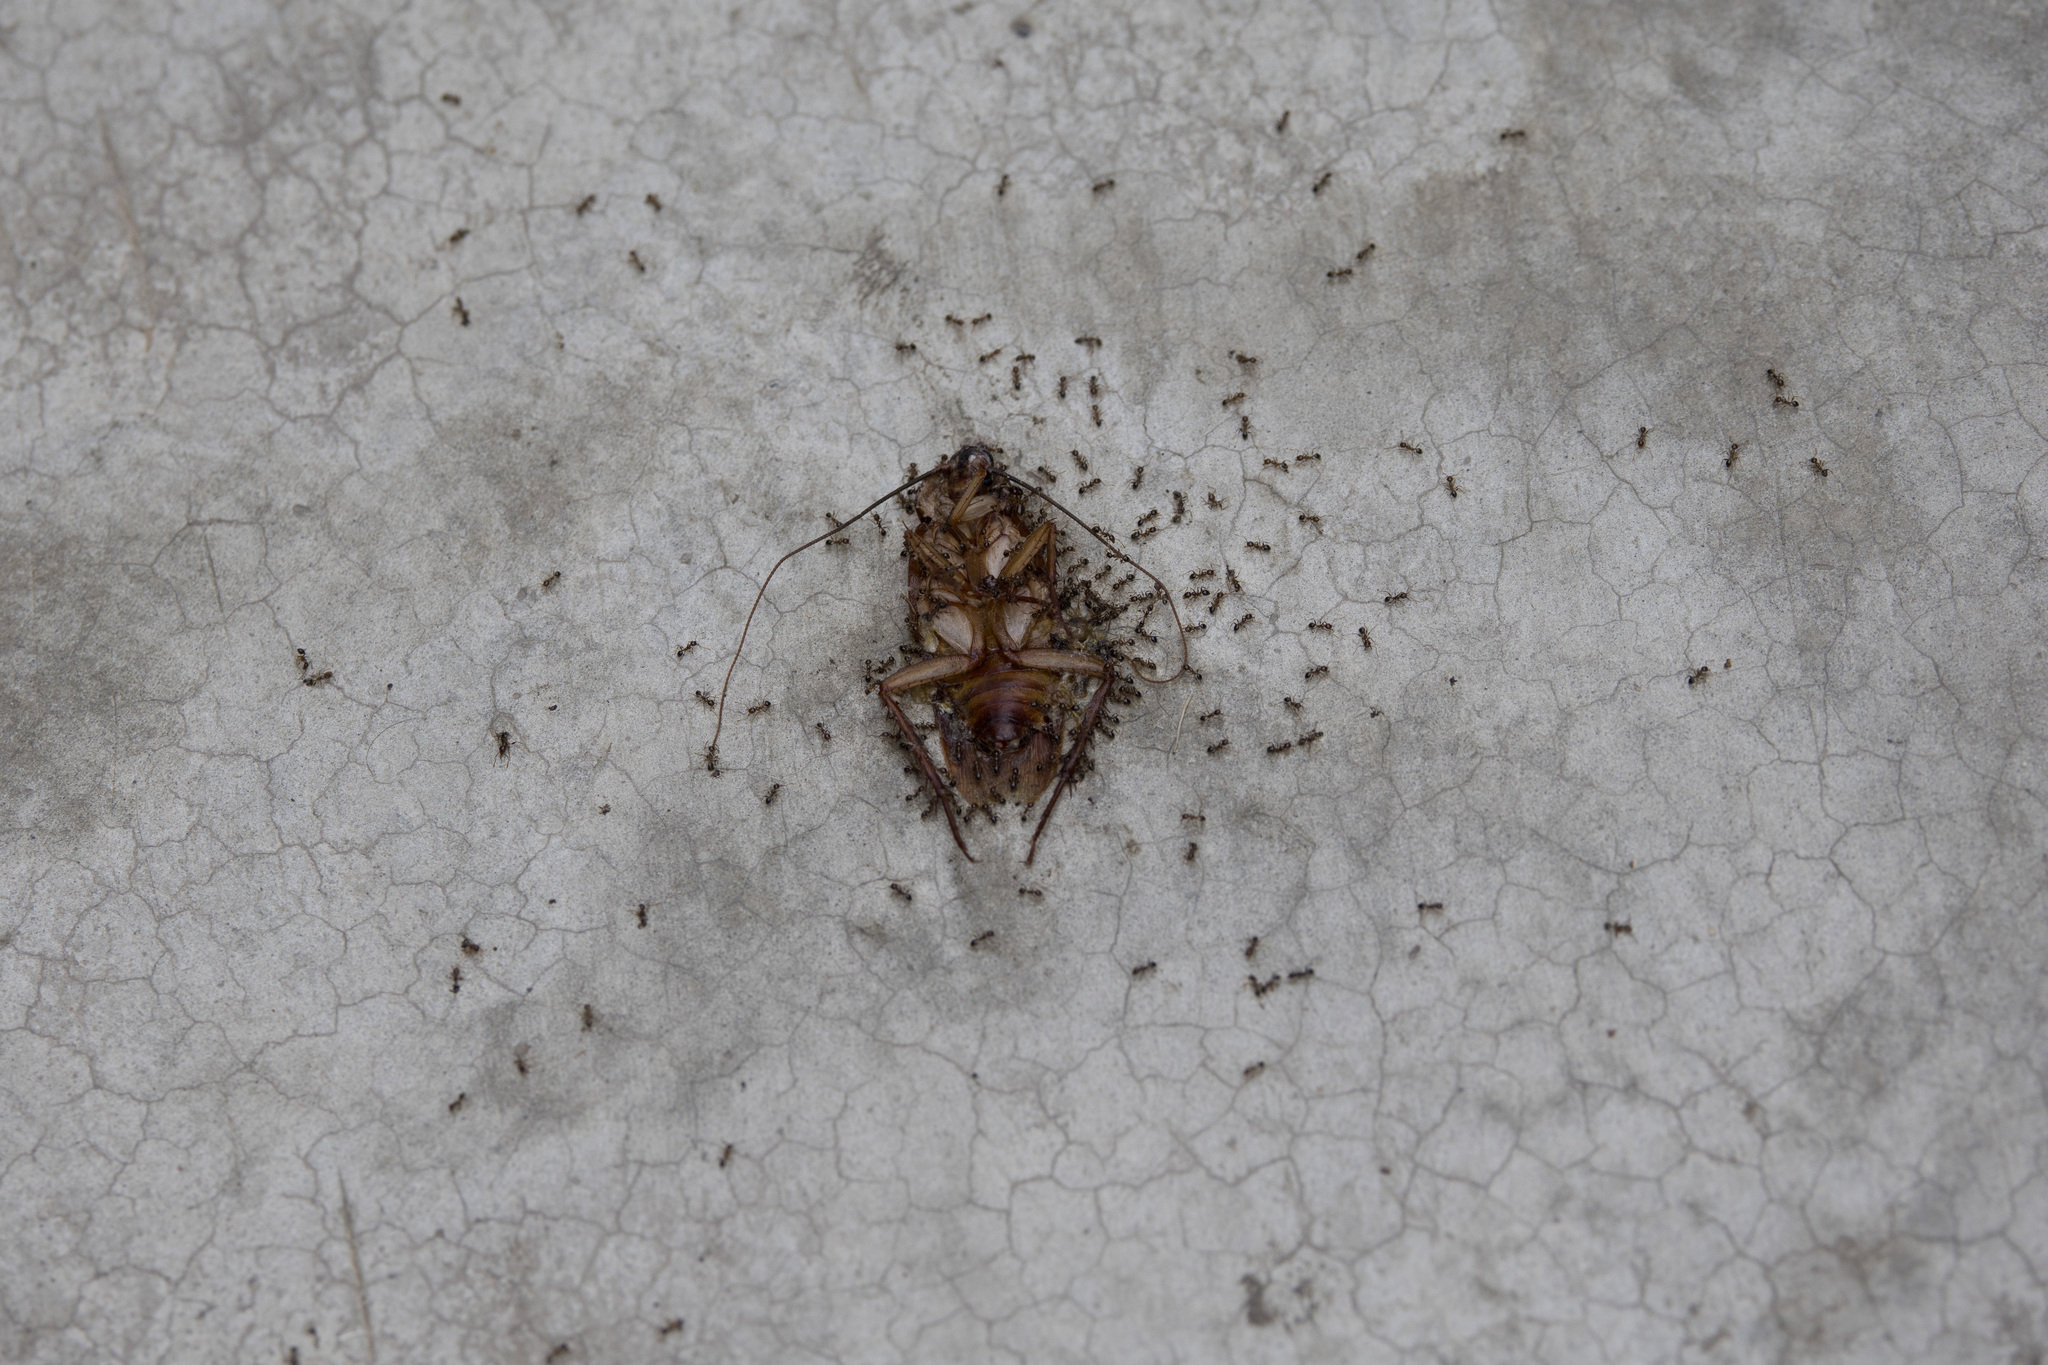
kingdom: Animalia
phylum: Arthropoda
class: Insecta
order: Blattodea
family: Blattidae
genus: Periplaneta
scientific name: Periplaneta americana
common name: American cockroach
